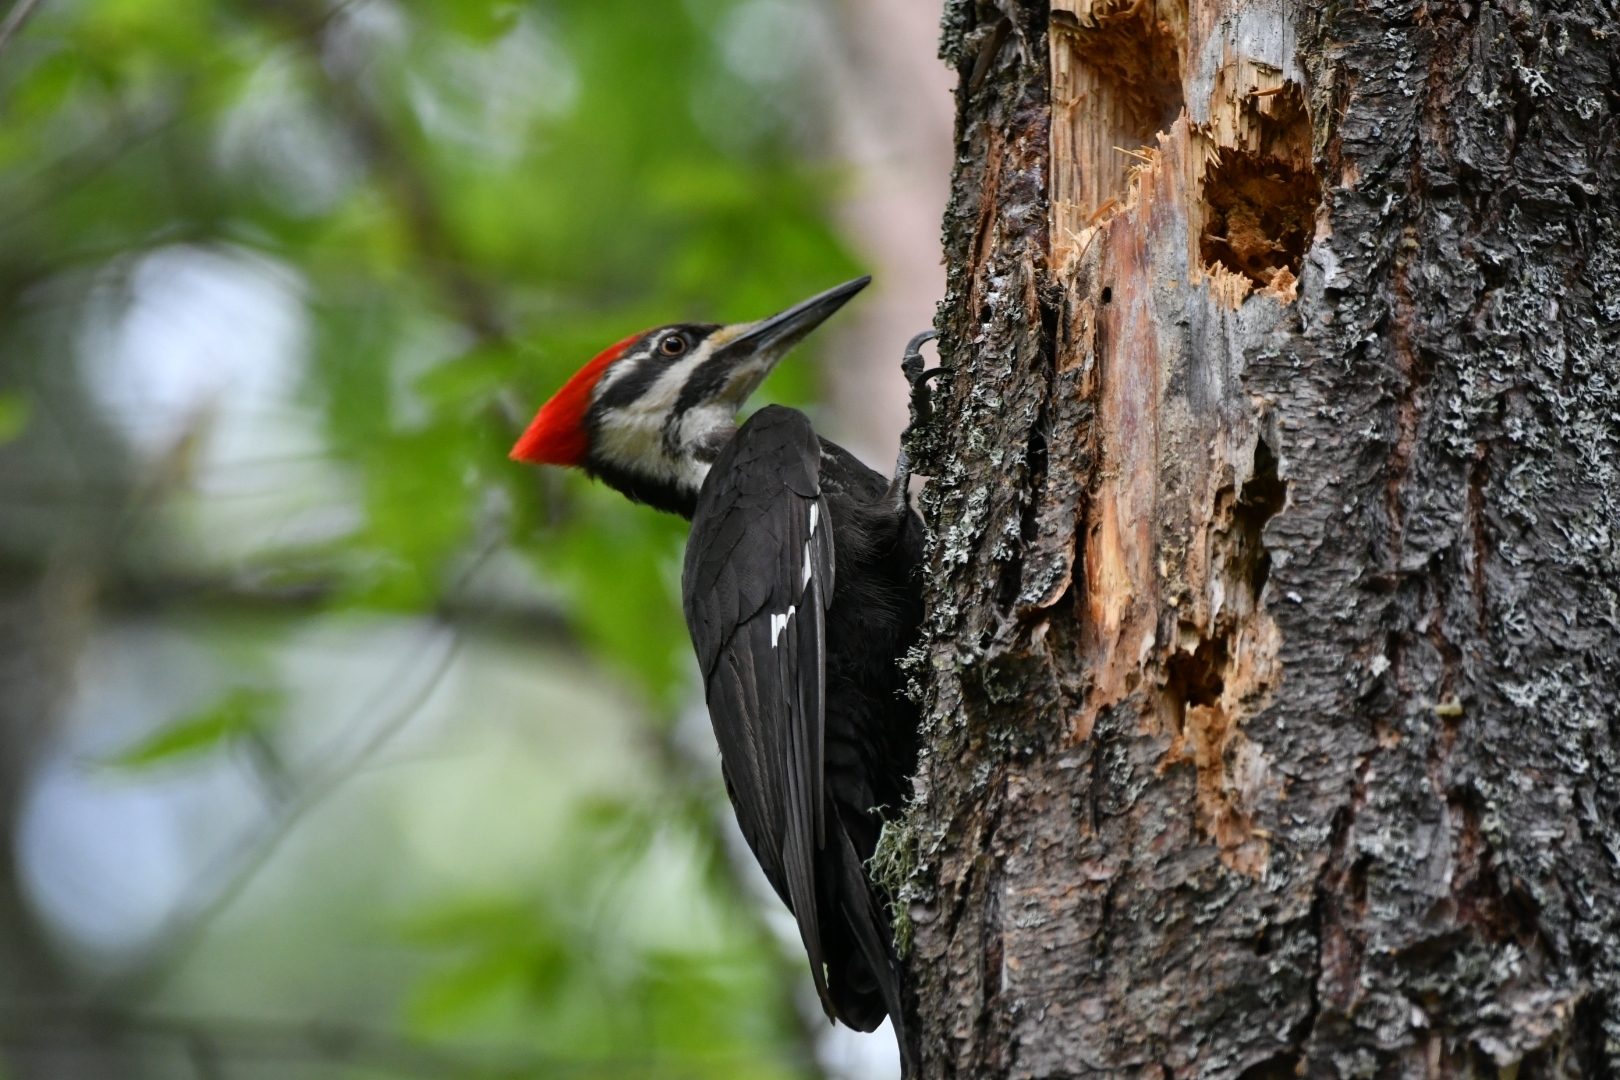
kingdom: Animalia
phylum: Chordata
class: Aves
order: Piciformes
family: Picidae
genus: Dryocopus
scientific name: Dryocopus pileatus
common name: Pileated woodpecker
